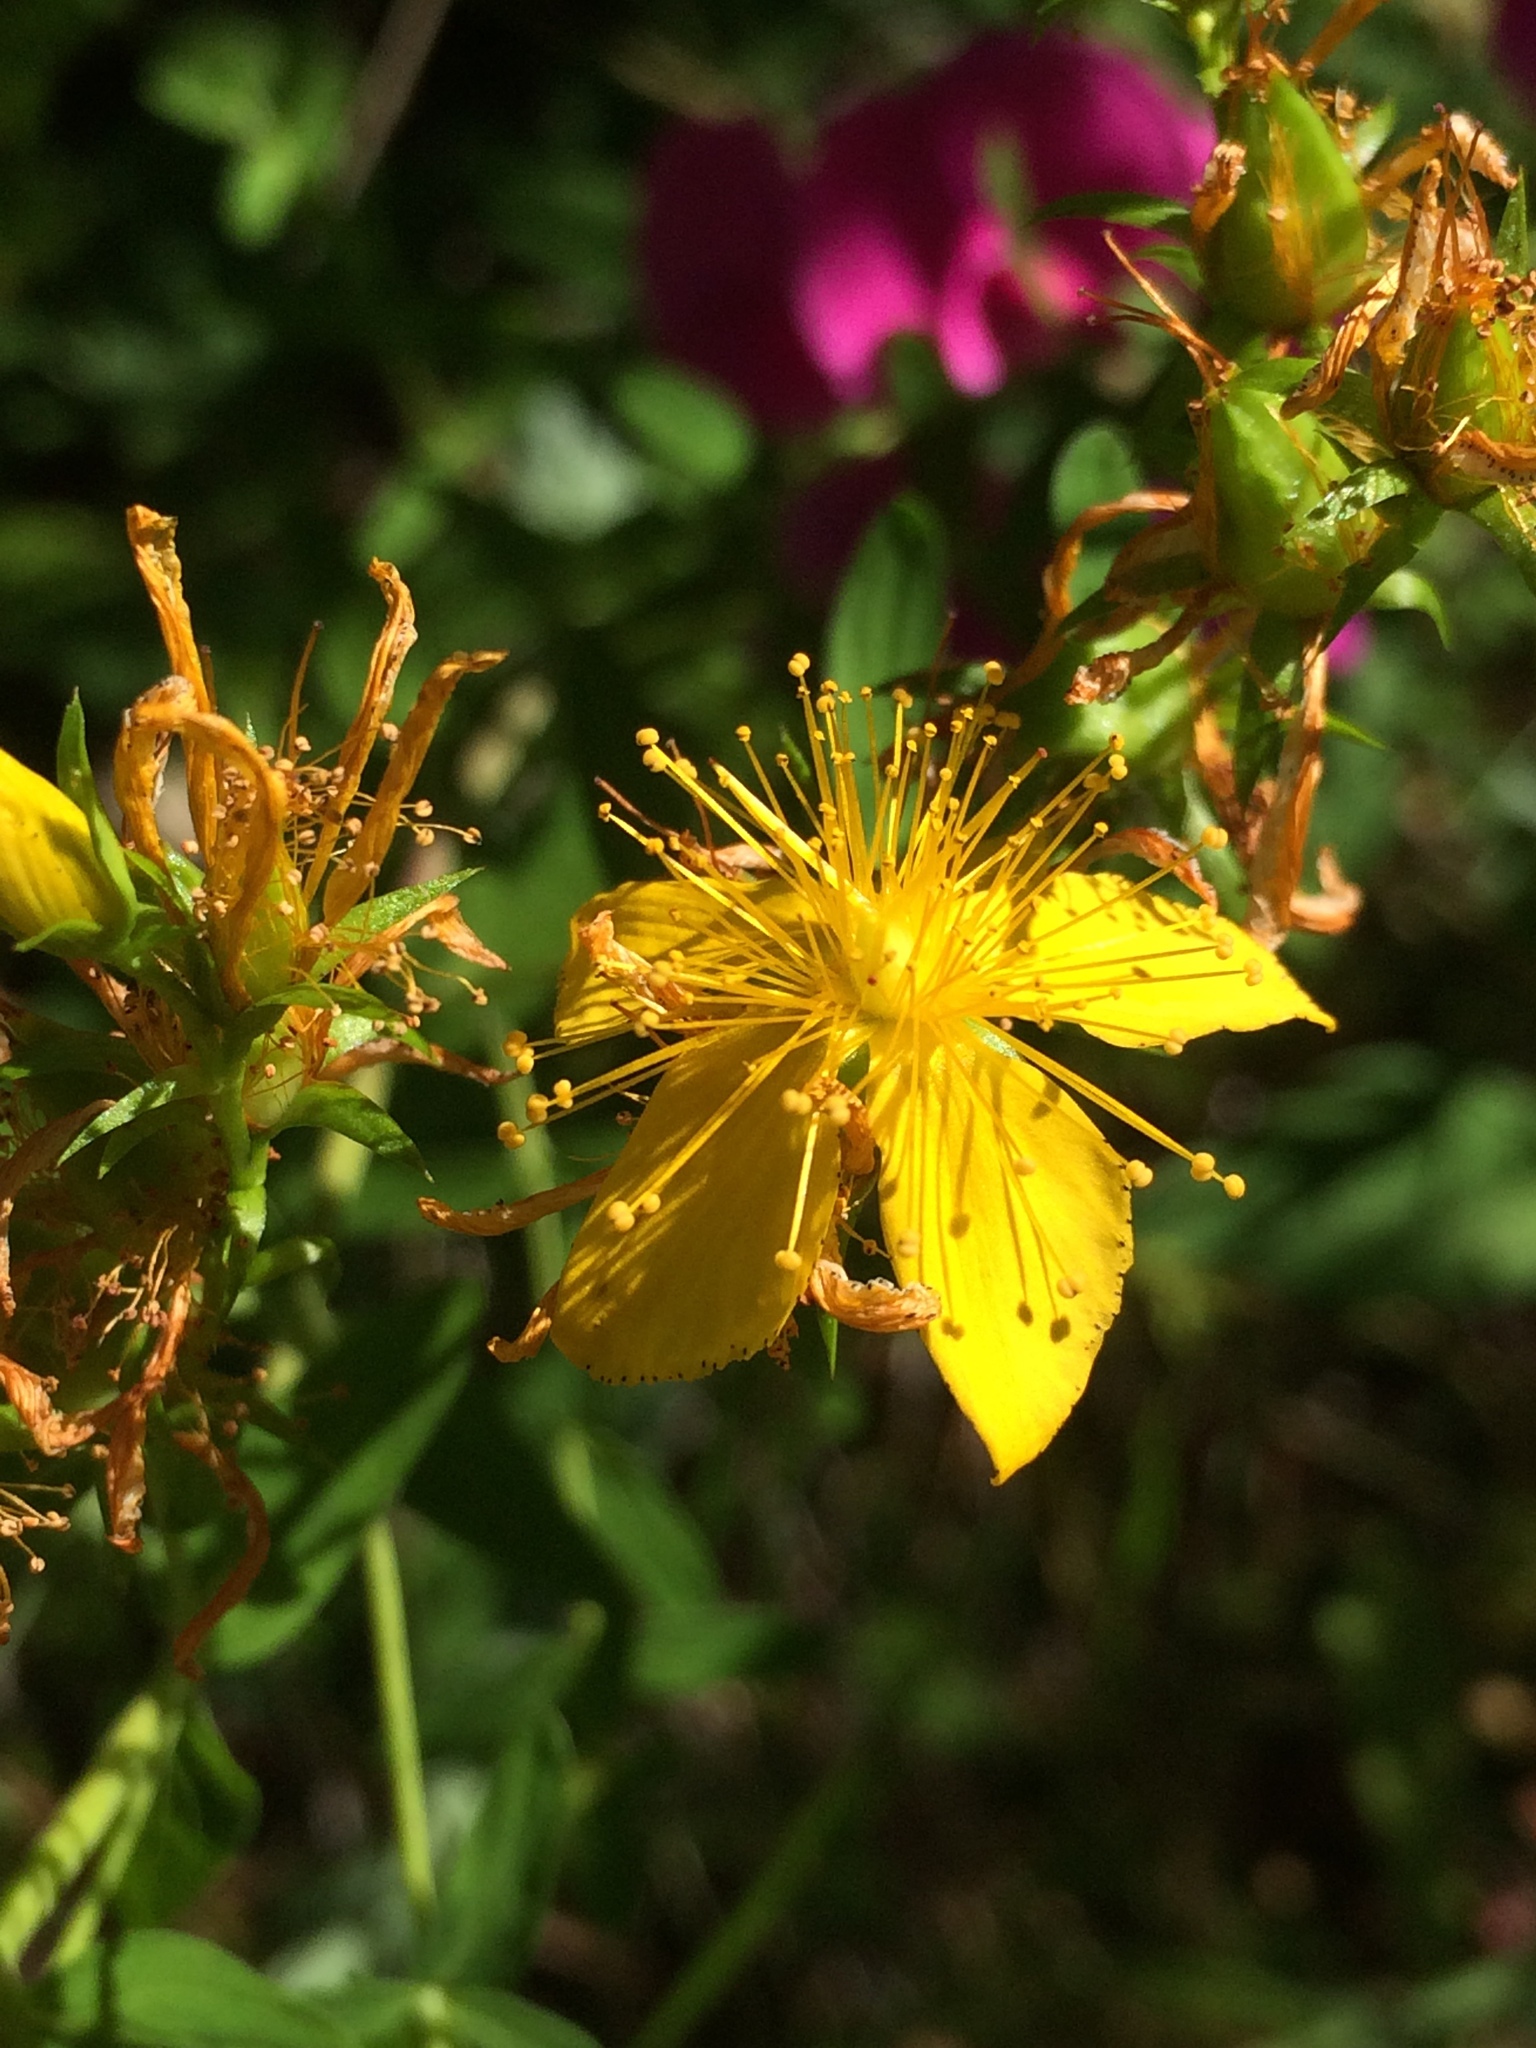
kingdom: Plantae
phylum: Tracheophyta
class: Magnoliopsida
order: Malpighiales
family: Hypericaceae
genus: Hypericum
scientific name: Hypericum perforatum
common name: Common st. johnswort
